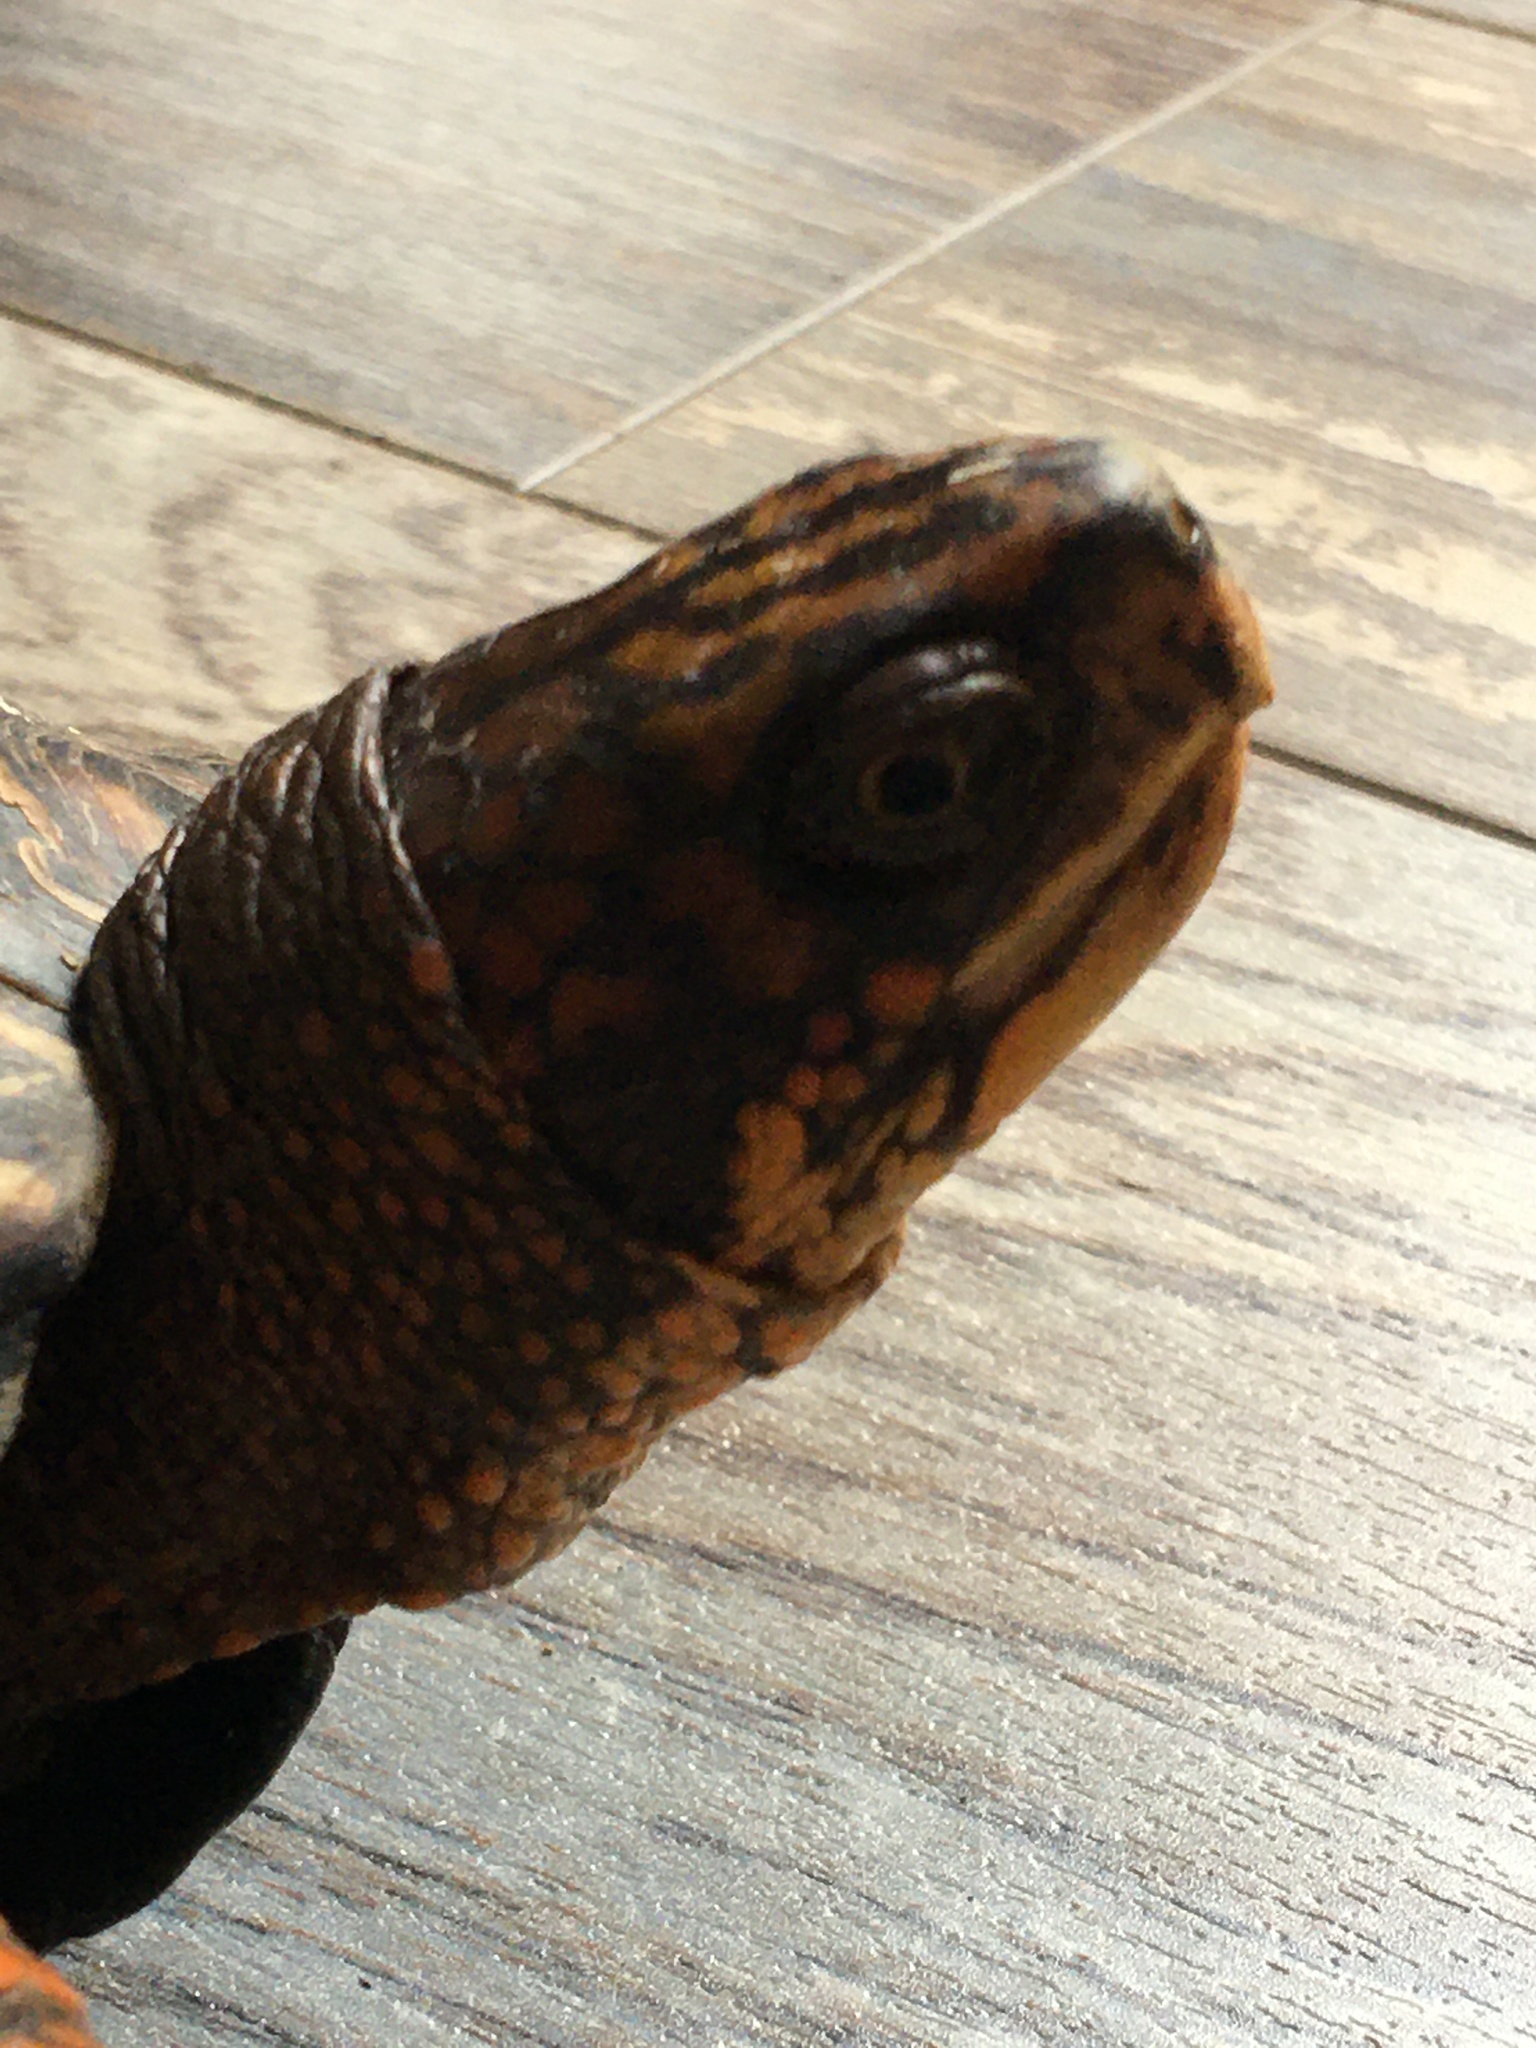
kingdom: Animalia
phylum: Chordata
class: Testudines
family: Emydidae
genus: Terrapene
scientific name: Terrapene carolina
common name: Common box turtle
